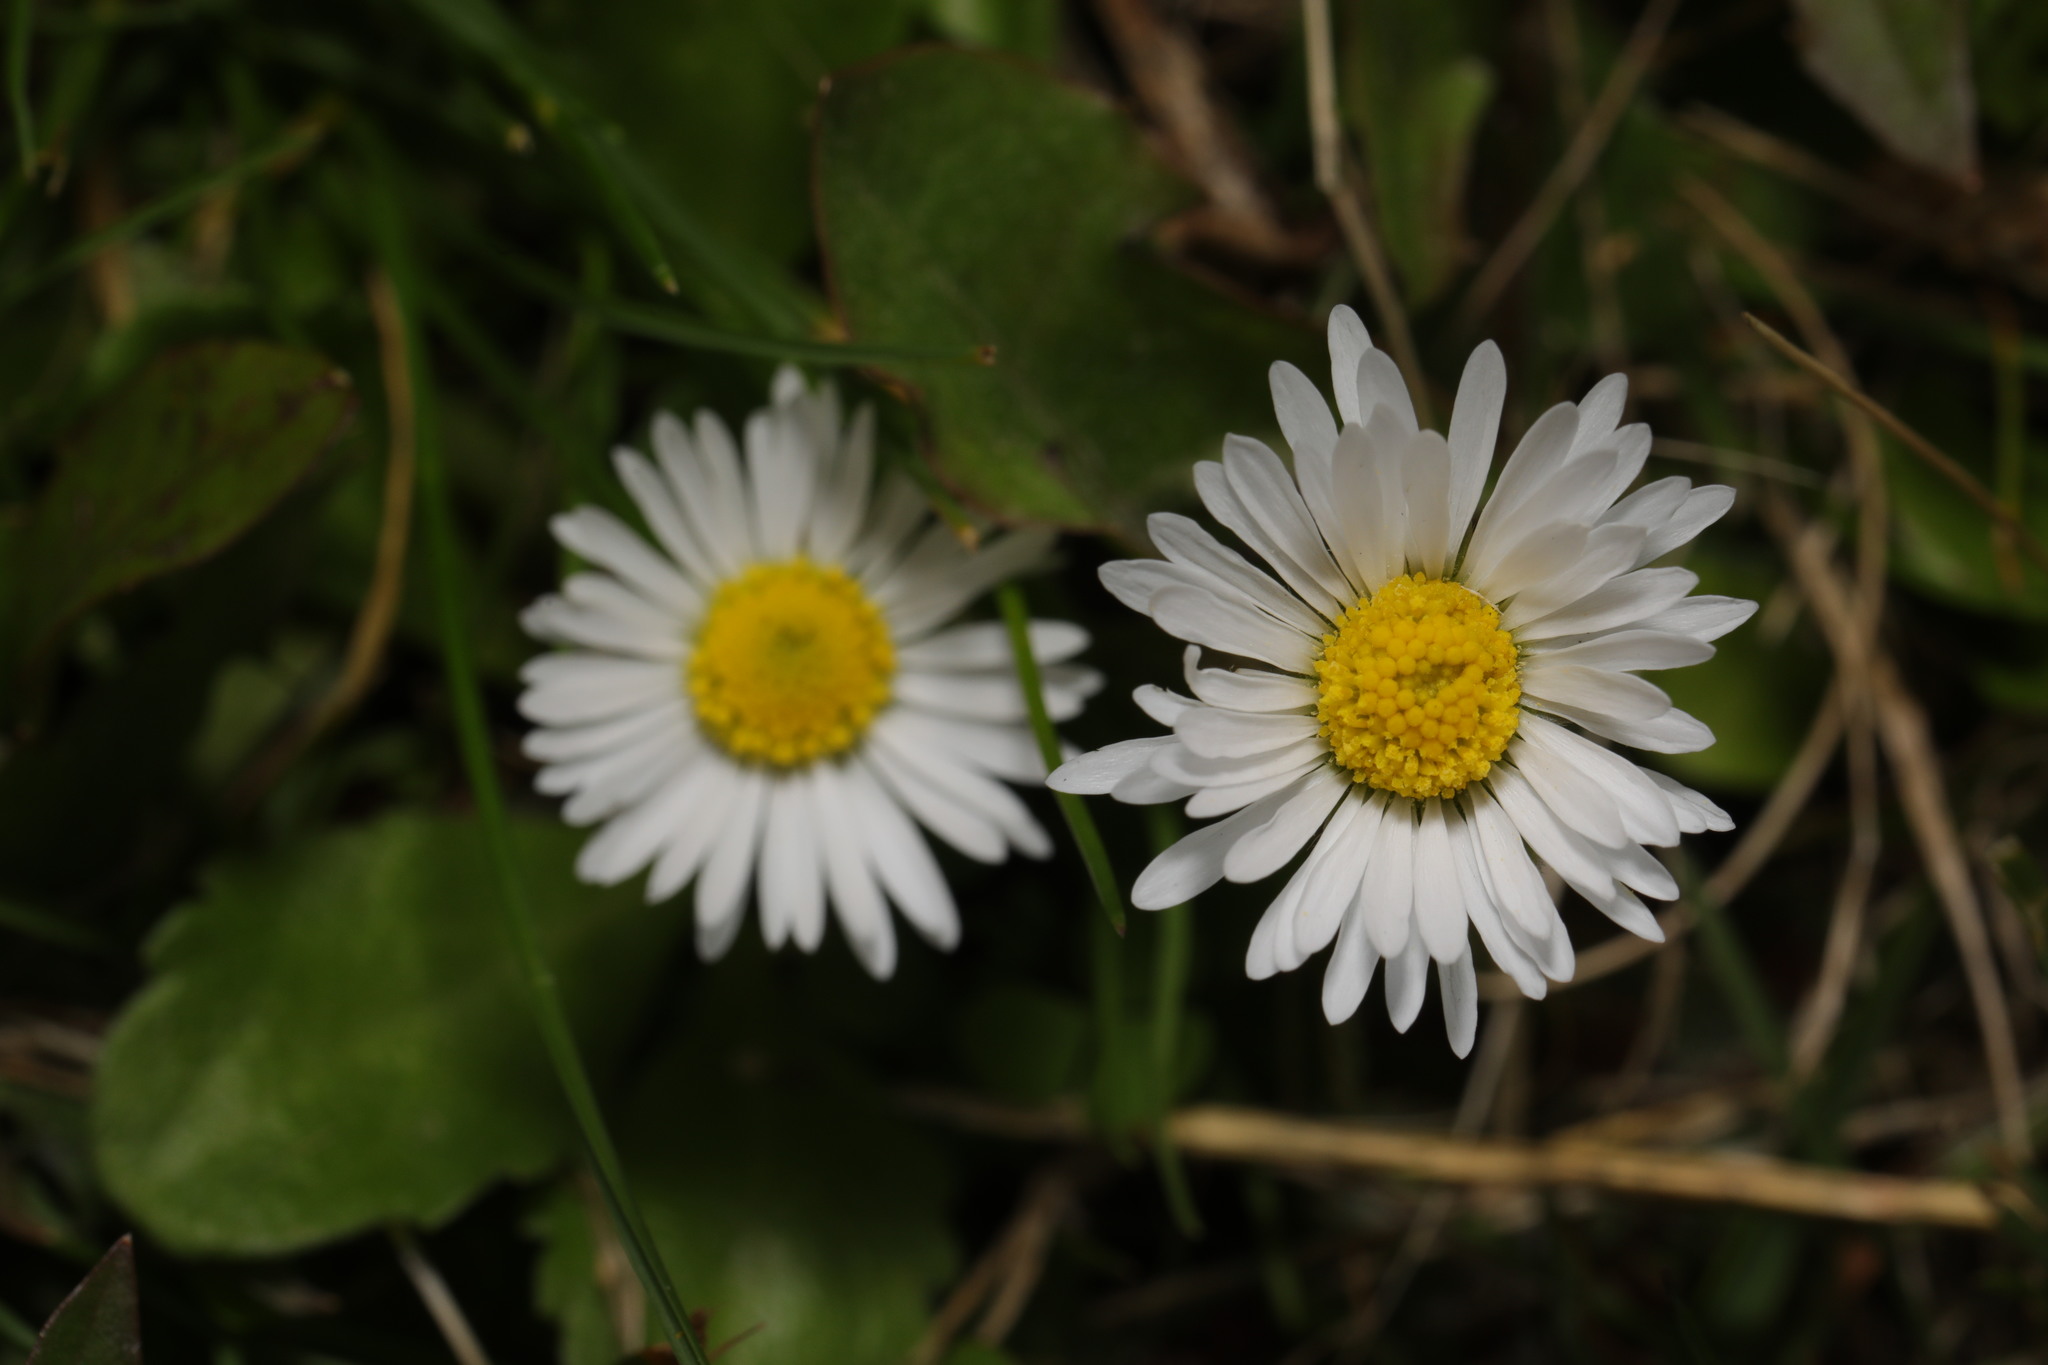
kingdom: Plantae
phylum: Tracheophyta
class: Magnoliopsida
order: Asterales
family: Asteraceae
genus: Bellis
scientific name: Bellis perennis
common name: Lawndaisy
